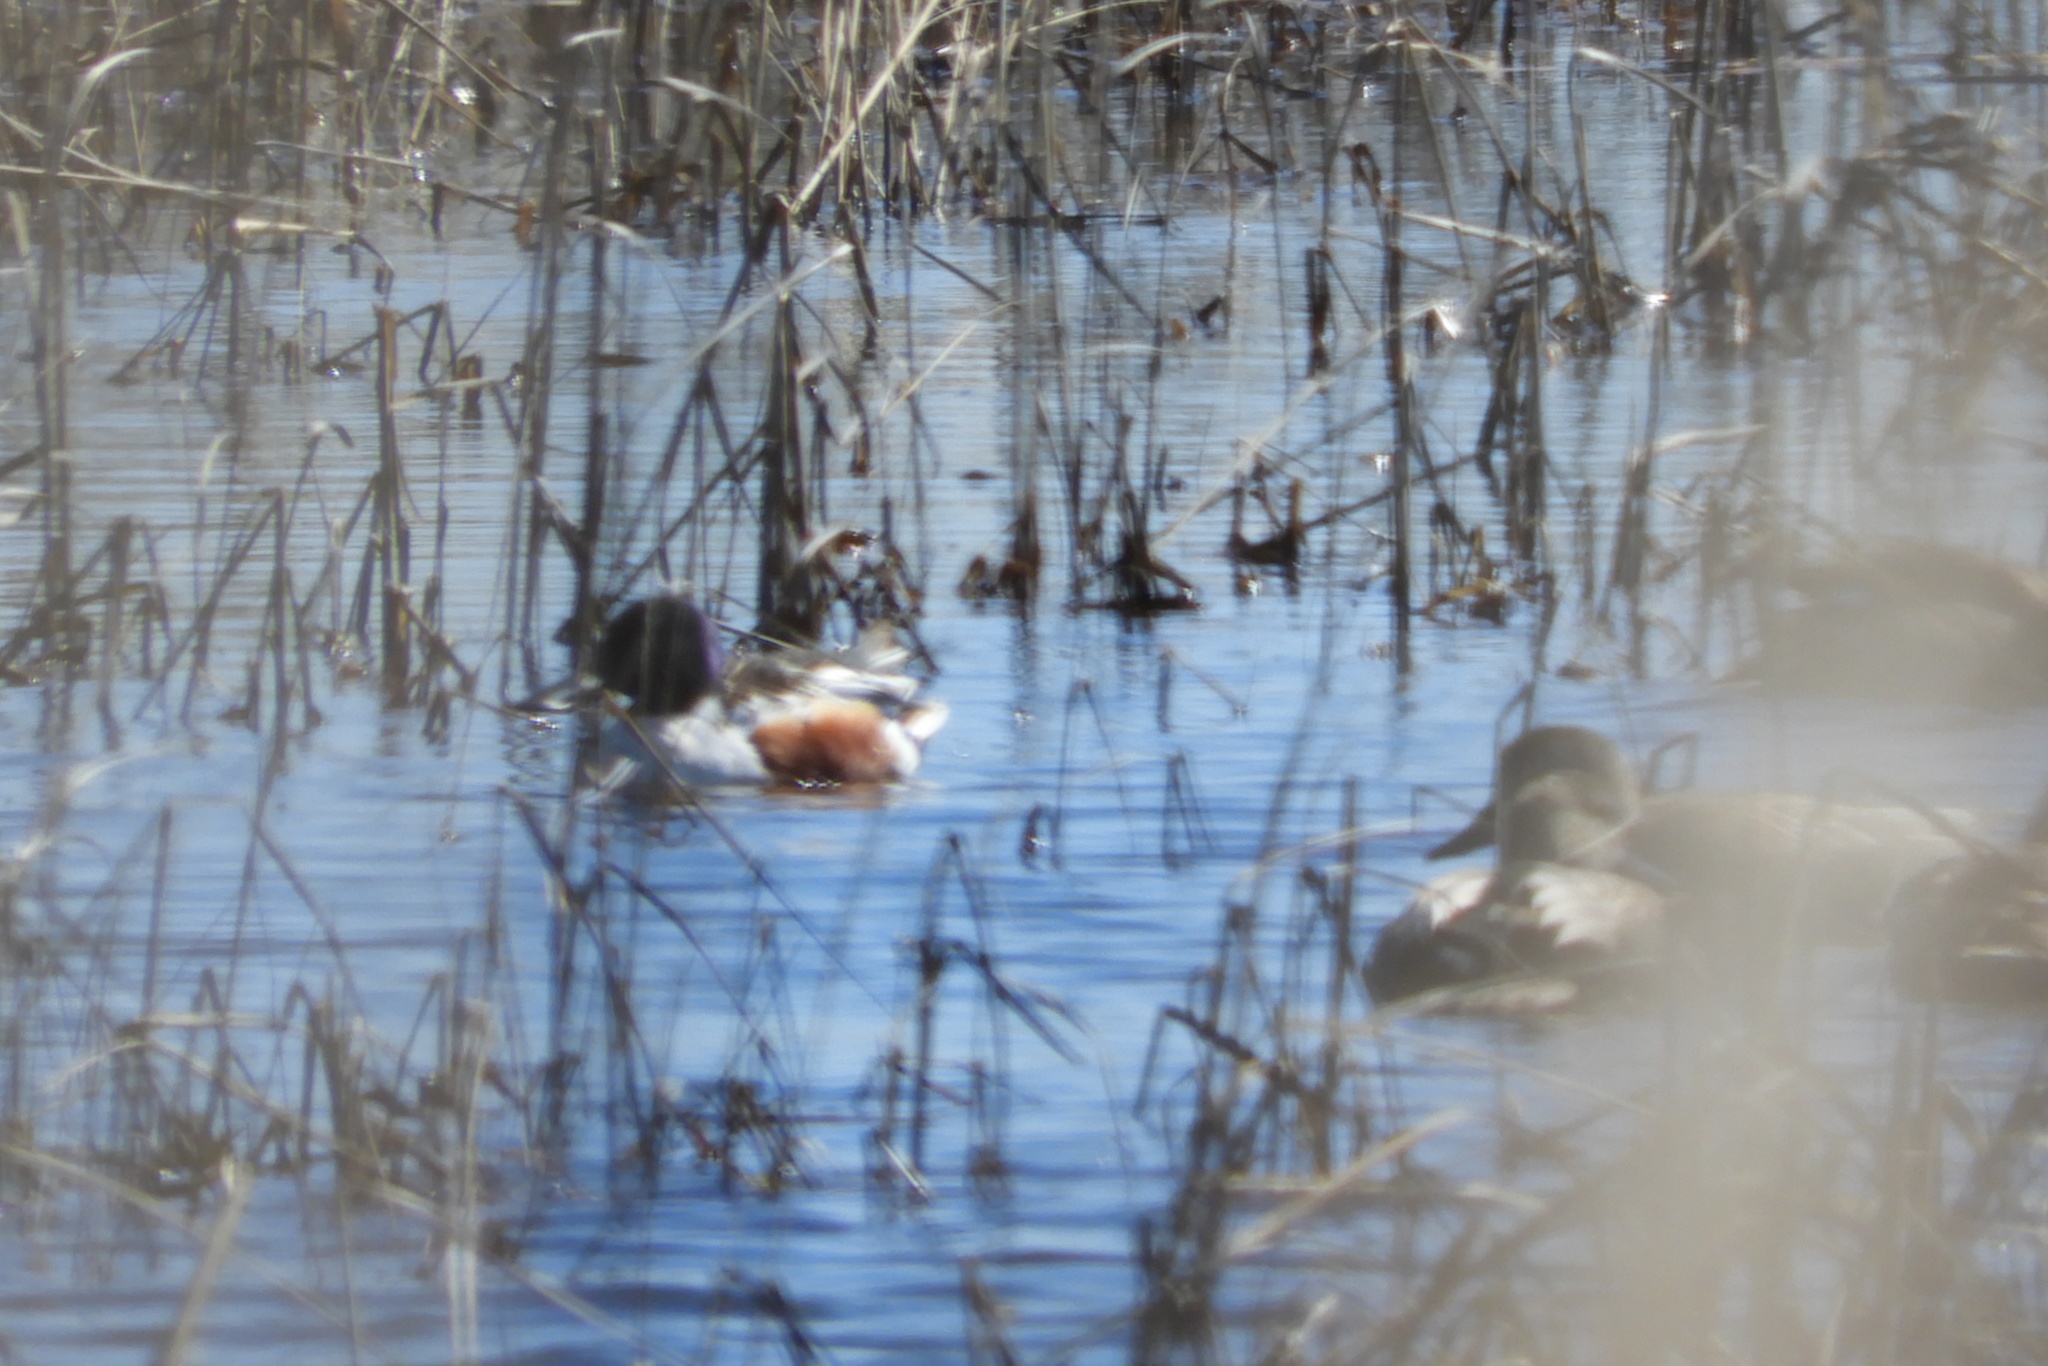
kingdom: Animalia
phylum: Chordata
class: Aves
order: Anseriformes
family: Anatidae
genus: Spatula
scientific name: Spatula clypeata
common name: Northern shoveler
